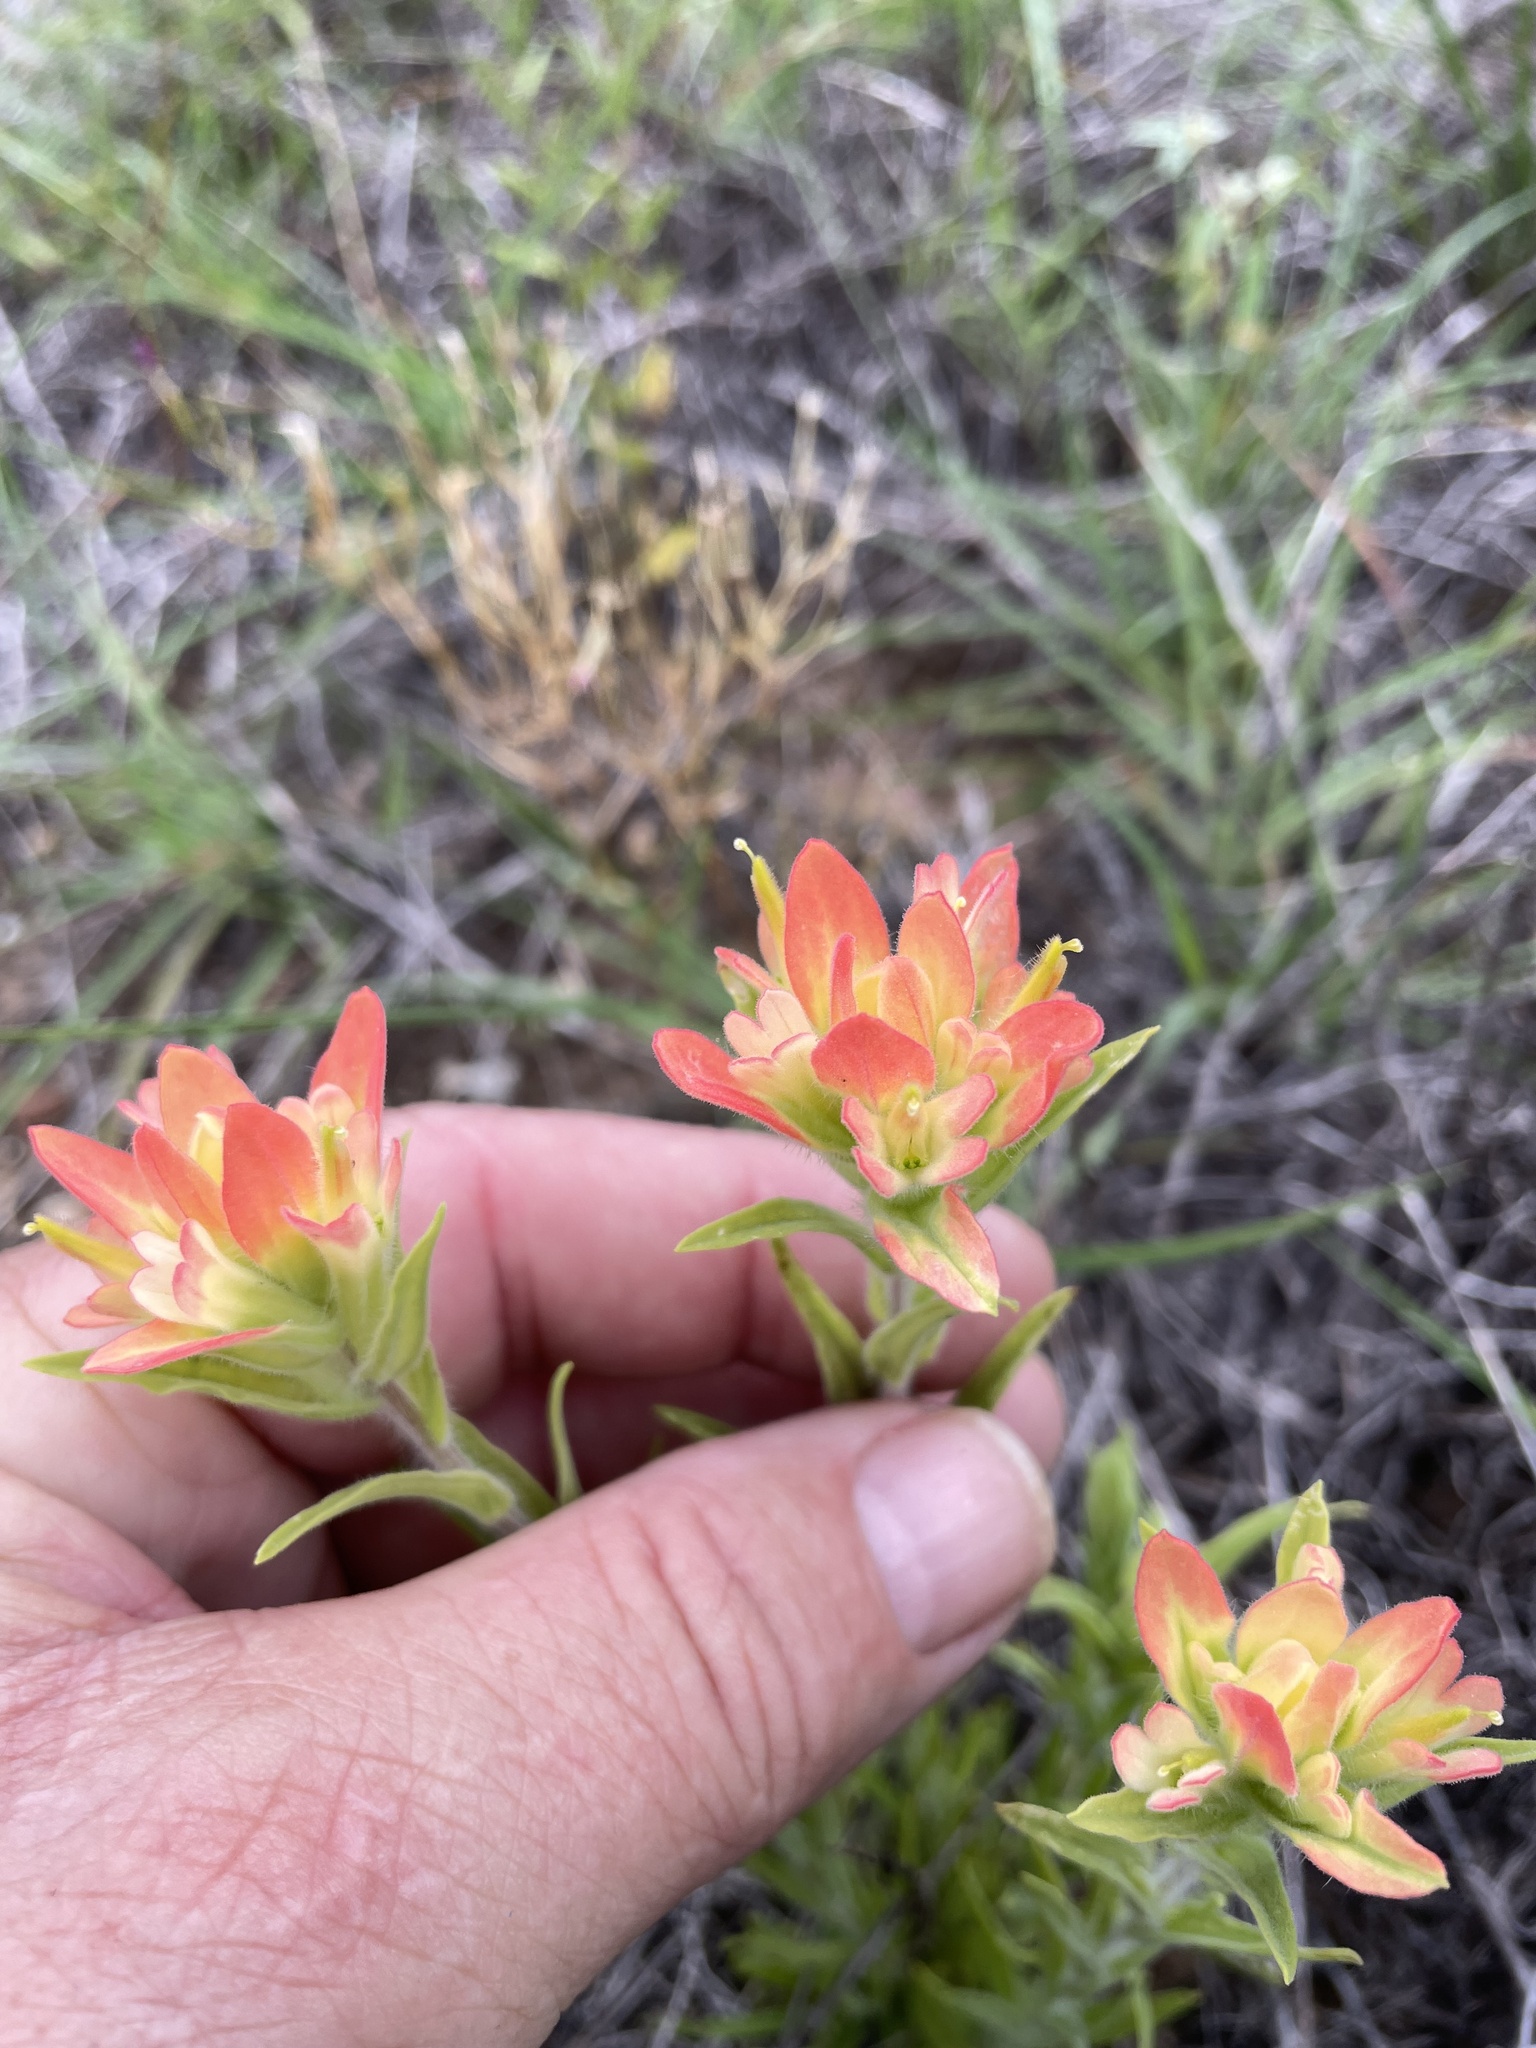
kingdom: Plantae
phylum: Tracheophyta
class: Magnoliopsida
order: Lamiales
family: Orobanchaceae
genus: Castilleja
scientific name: Castilleja indivisa
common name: Texas paintbrush
